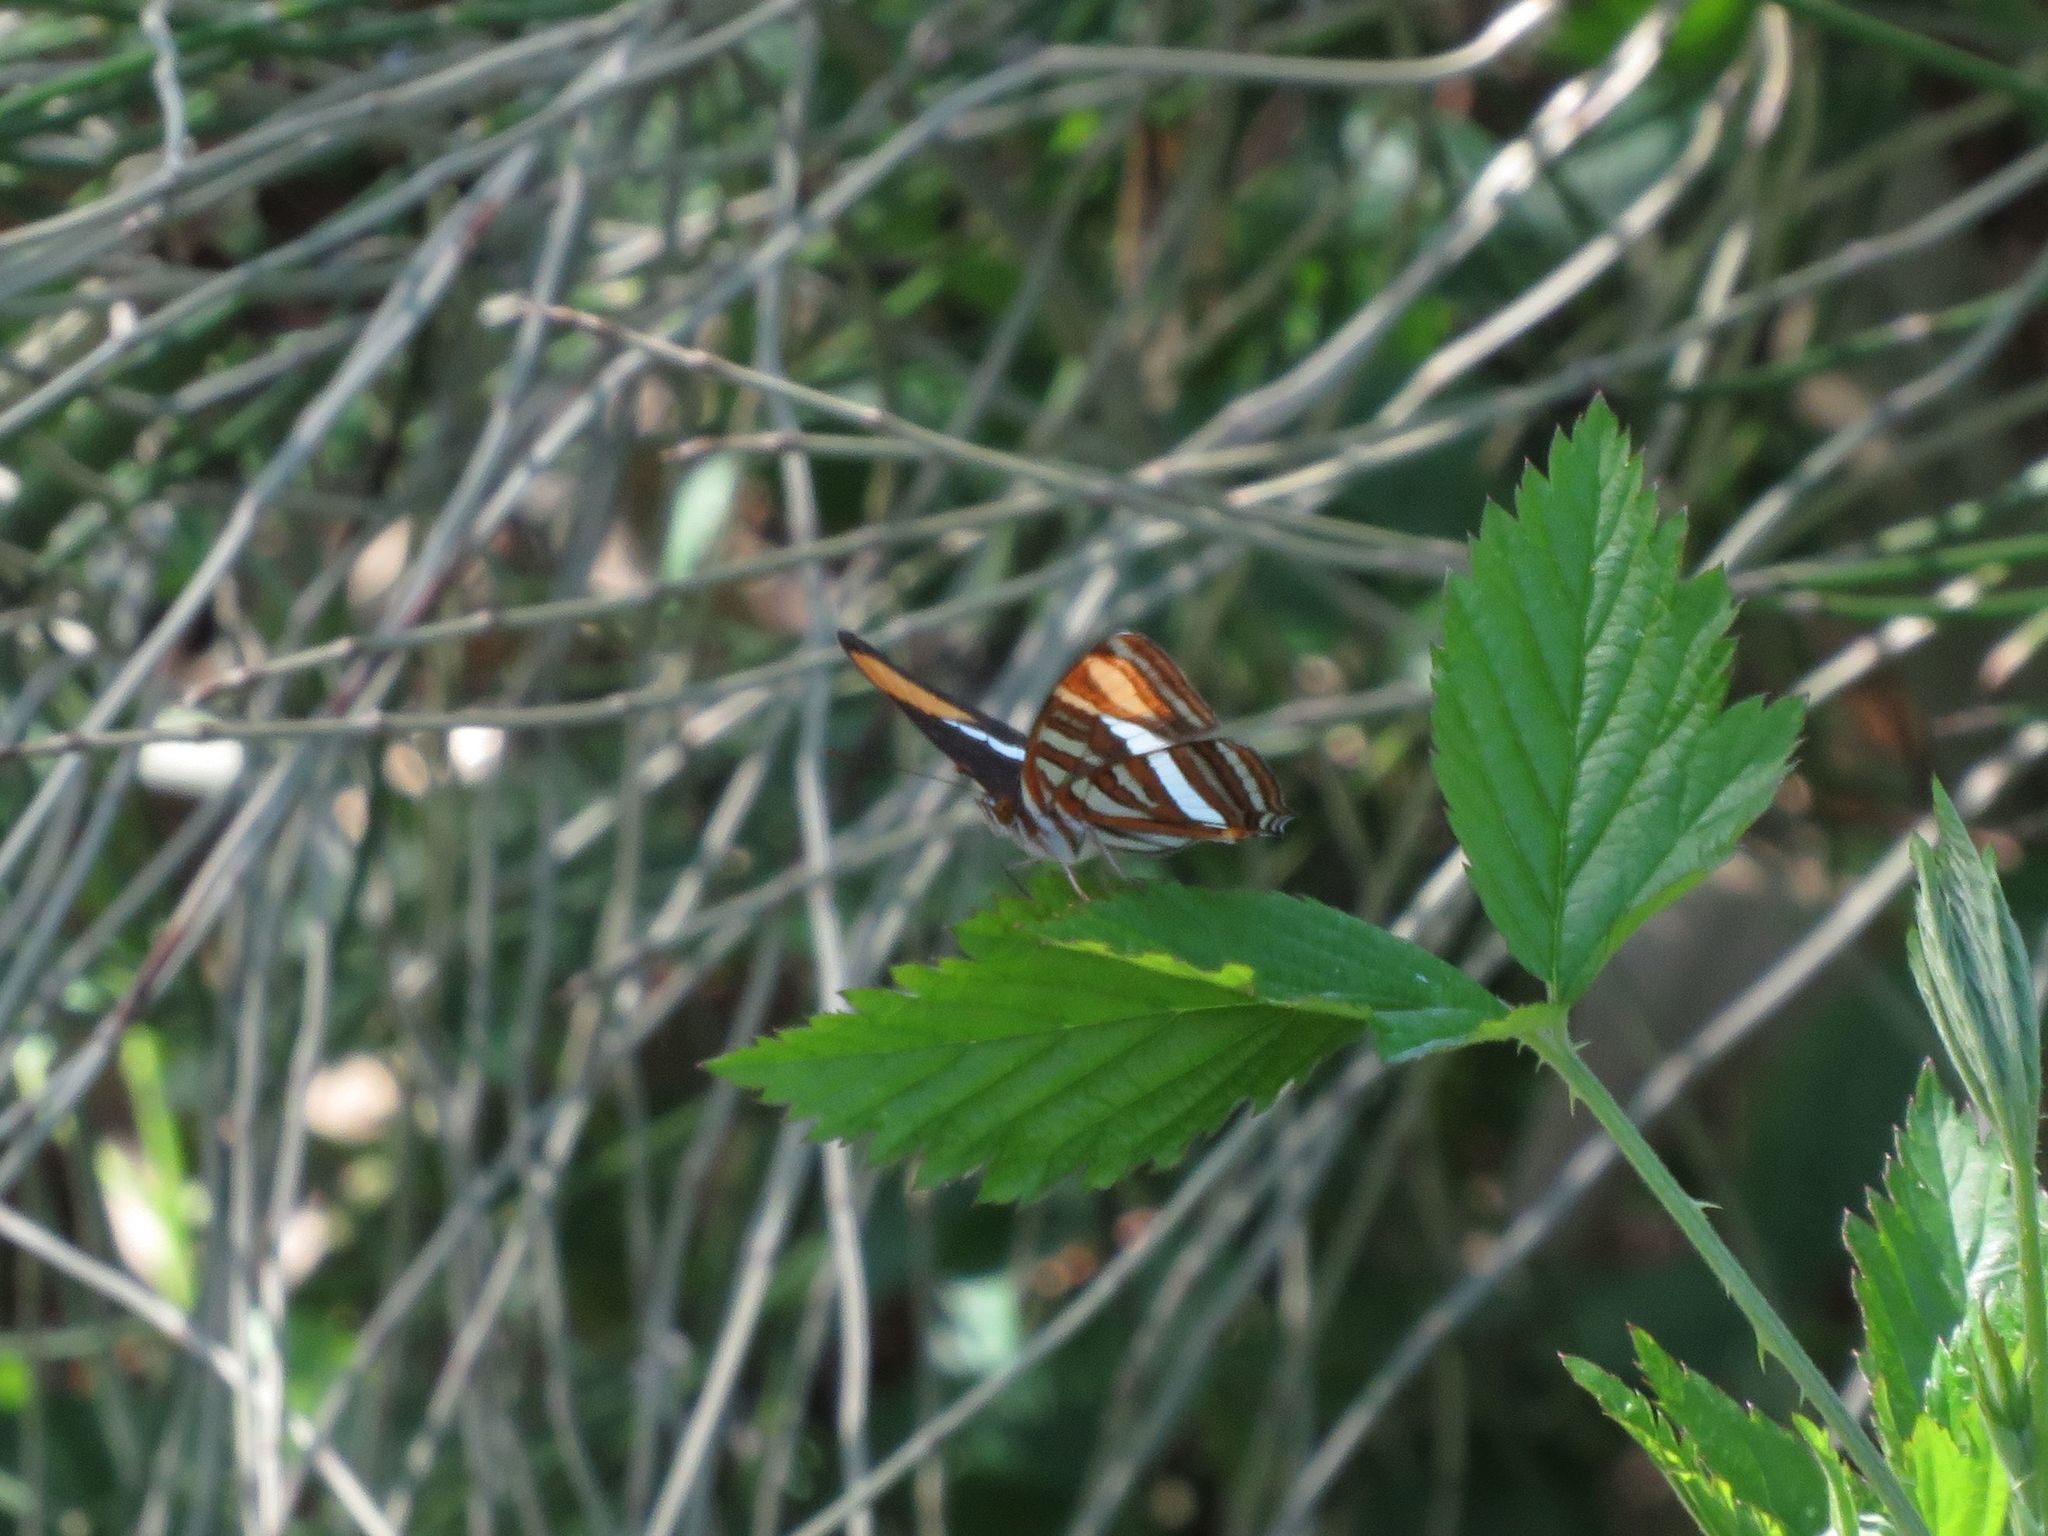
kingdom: Animalia
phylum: Arthropoda
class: Insecta
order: Lepidoptera
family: Nymphalidae
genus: Limenitis
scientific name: Limenitis syma
